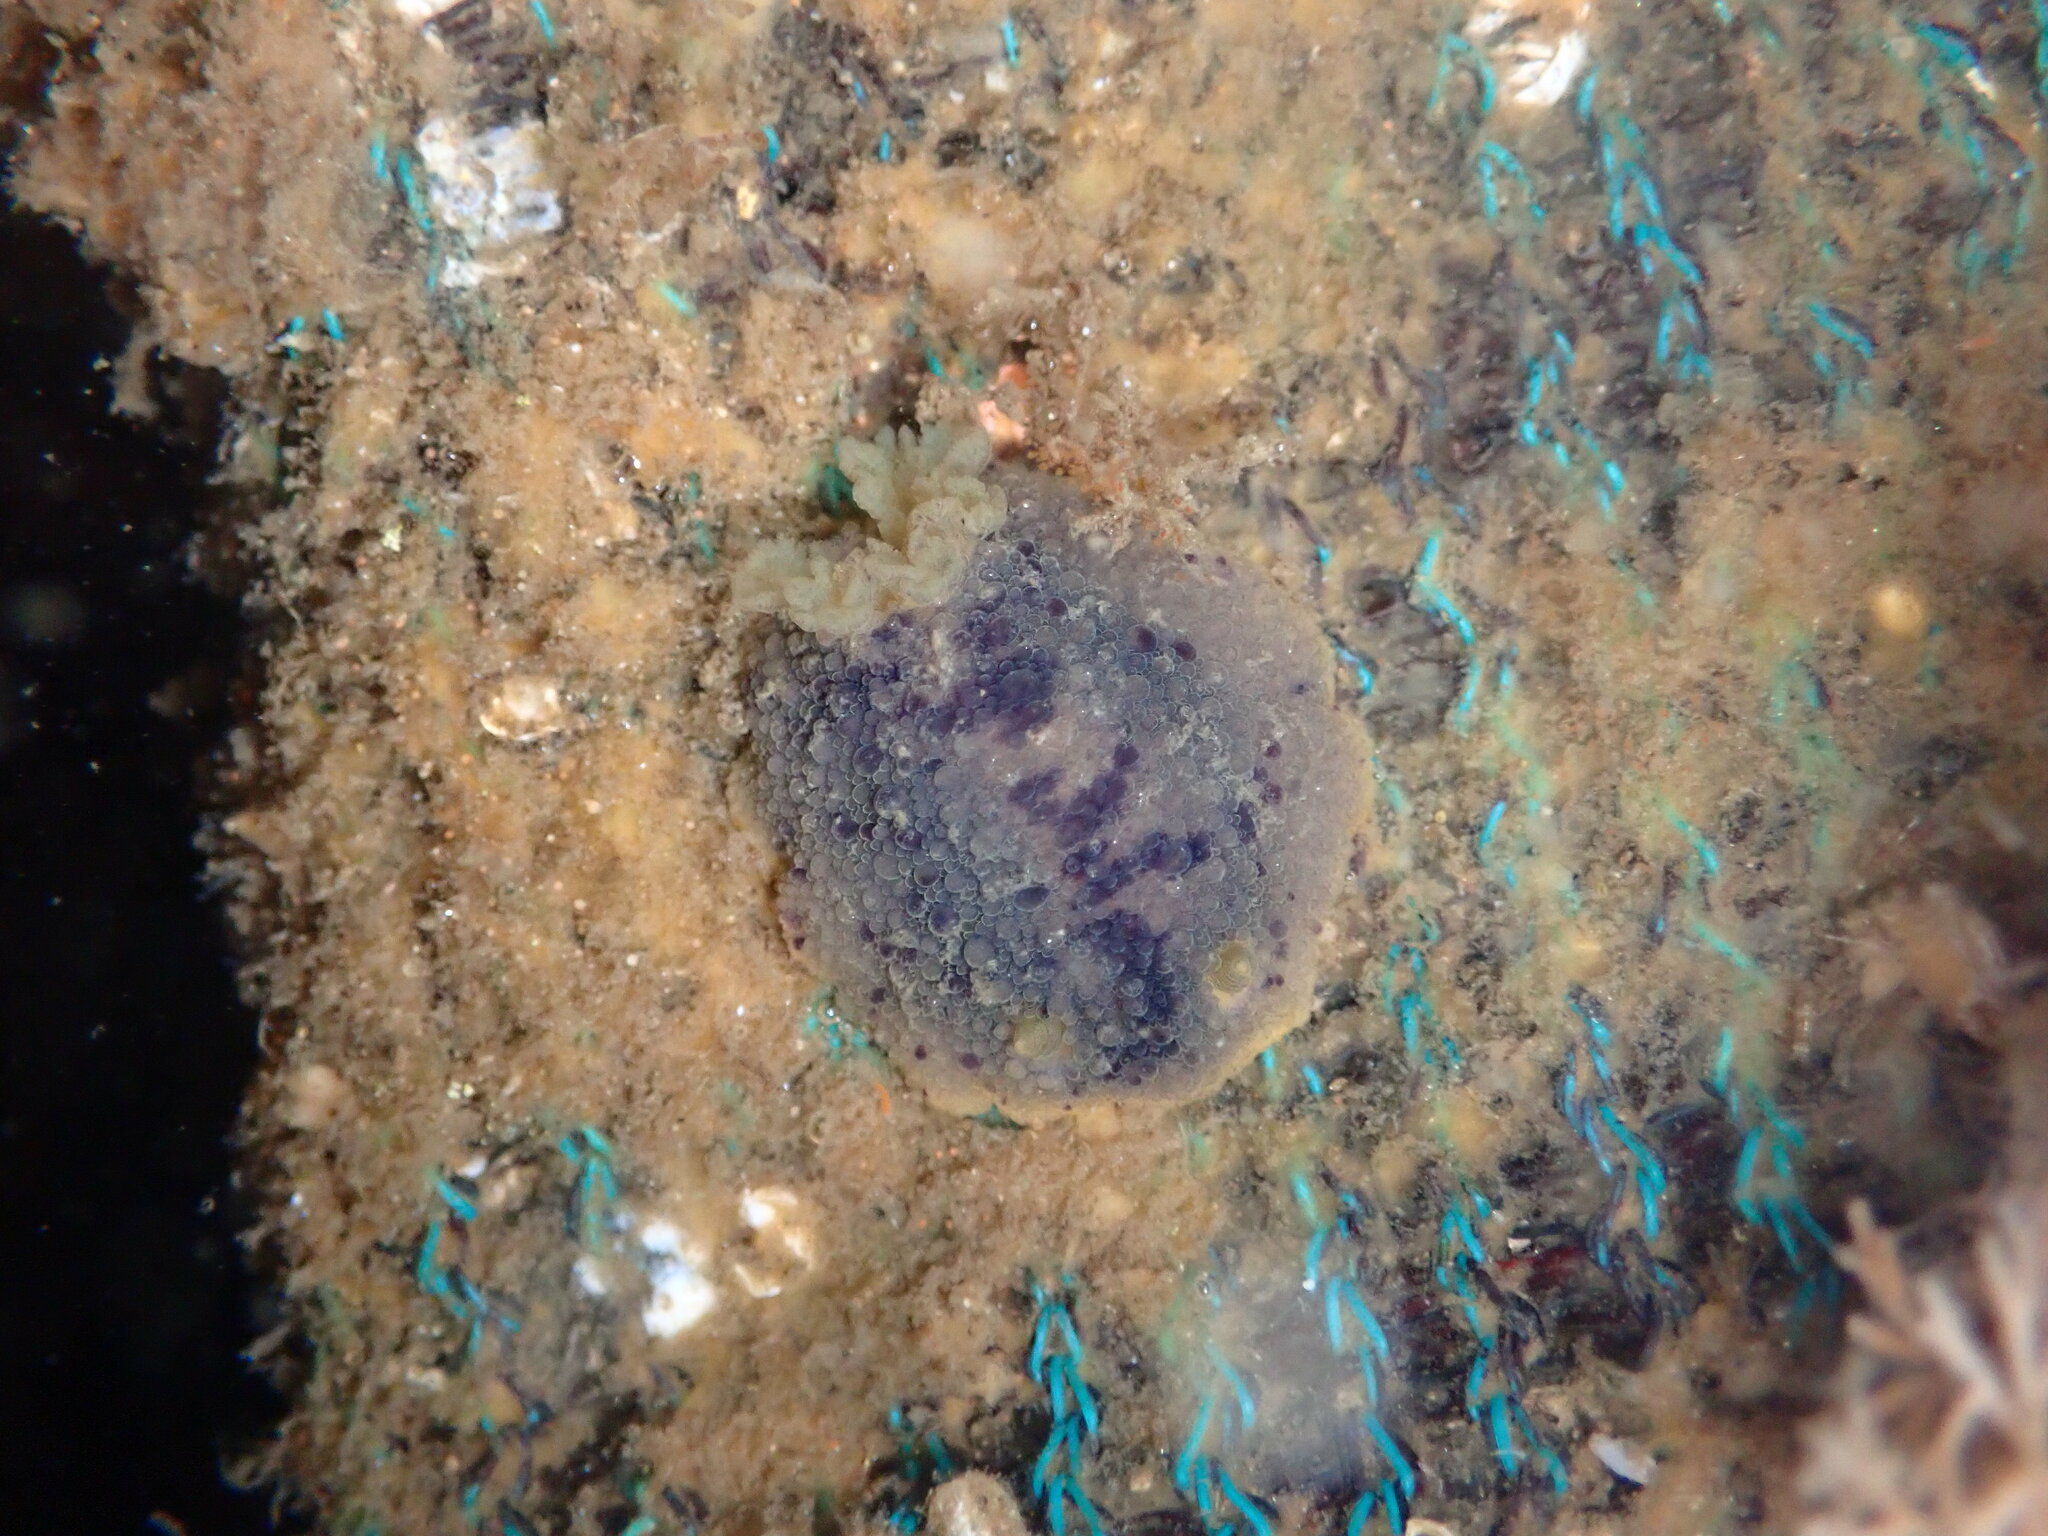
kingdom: Animalia
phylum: Mollusca
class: Gastropoda
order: Nudibranchia
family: Dorididae
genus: Doris
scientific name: Doris montereyensis
